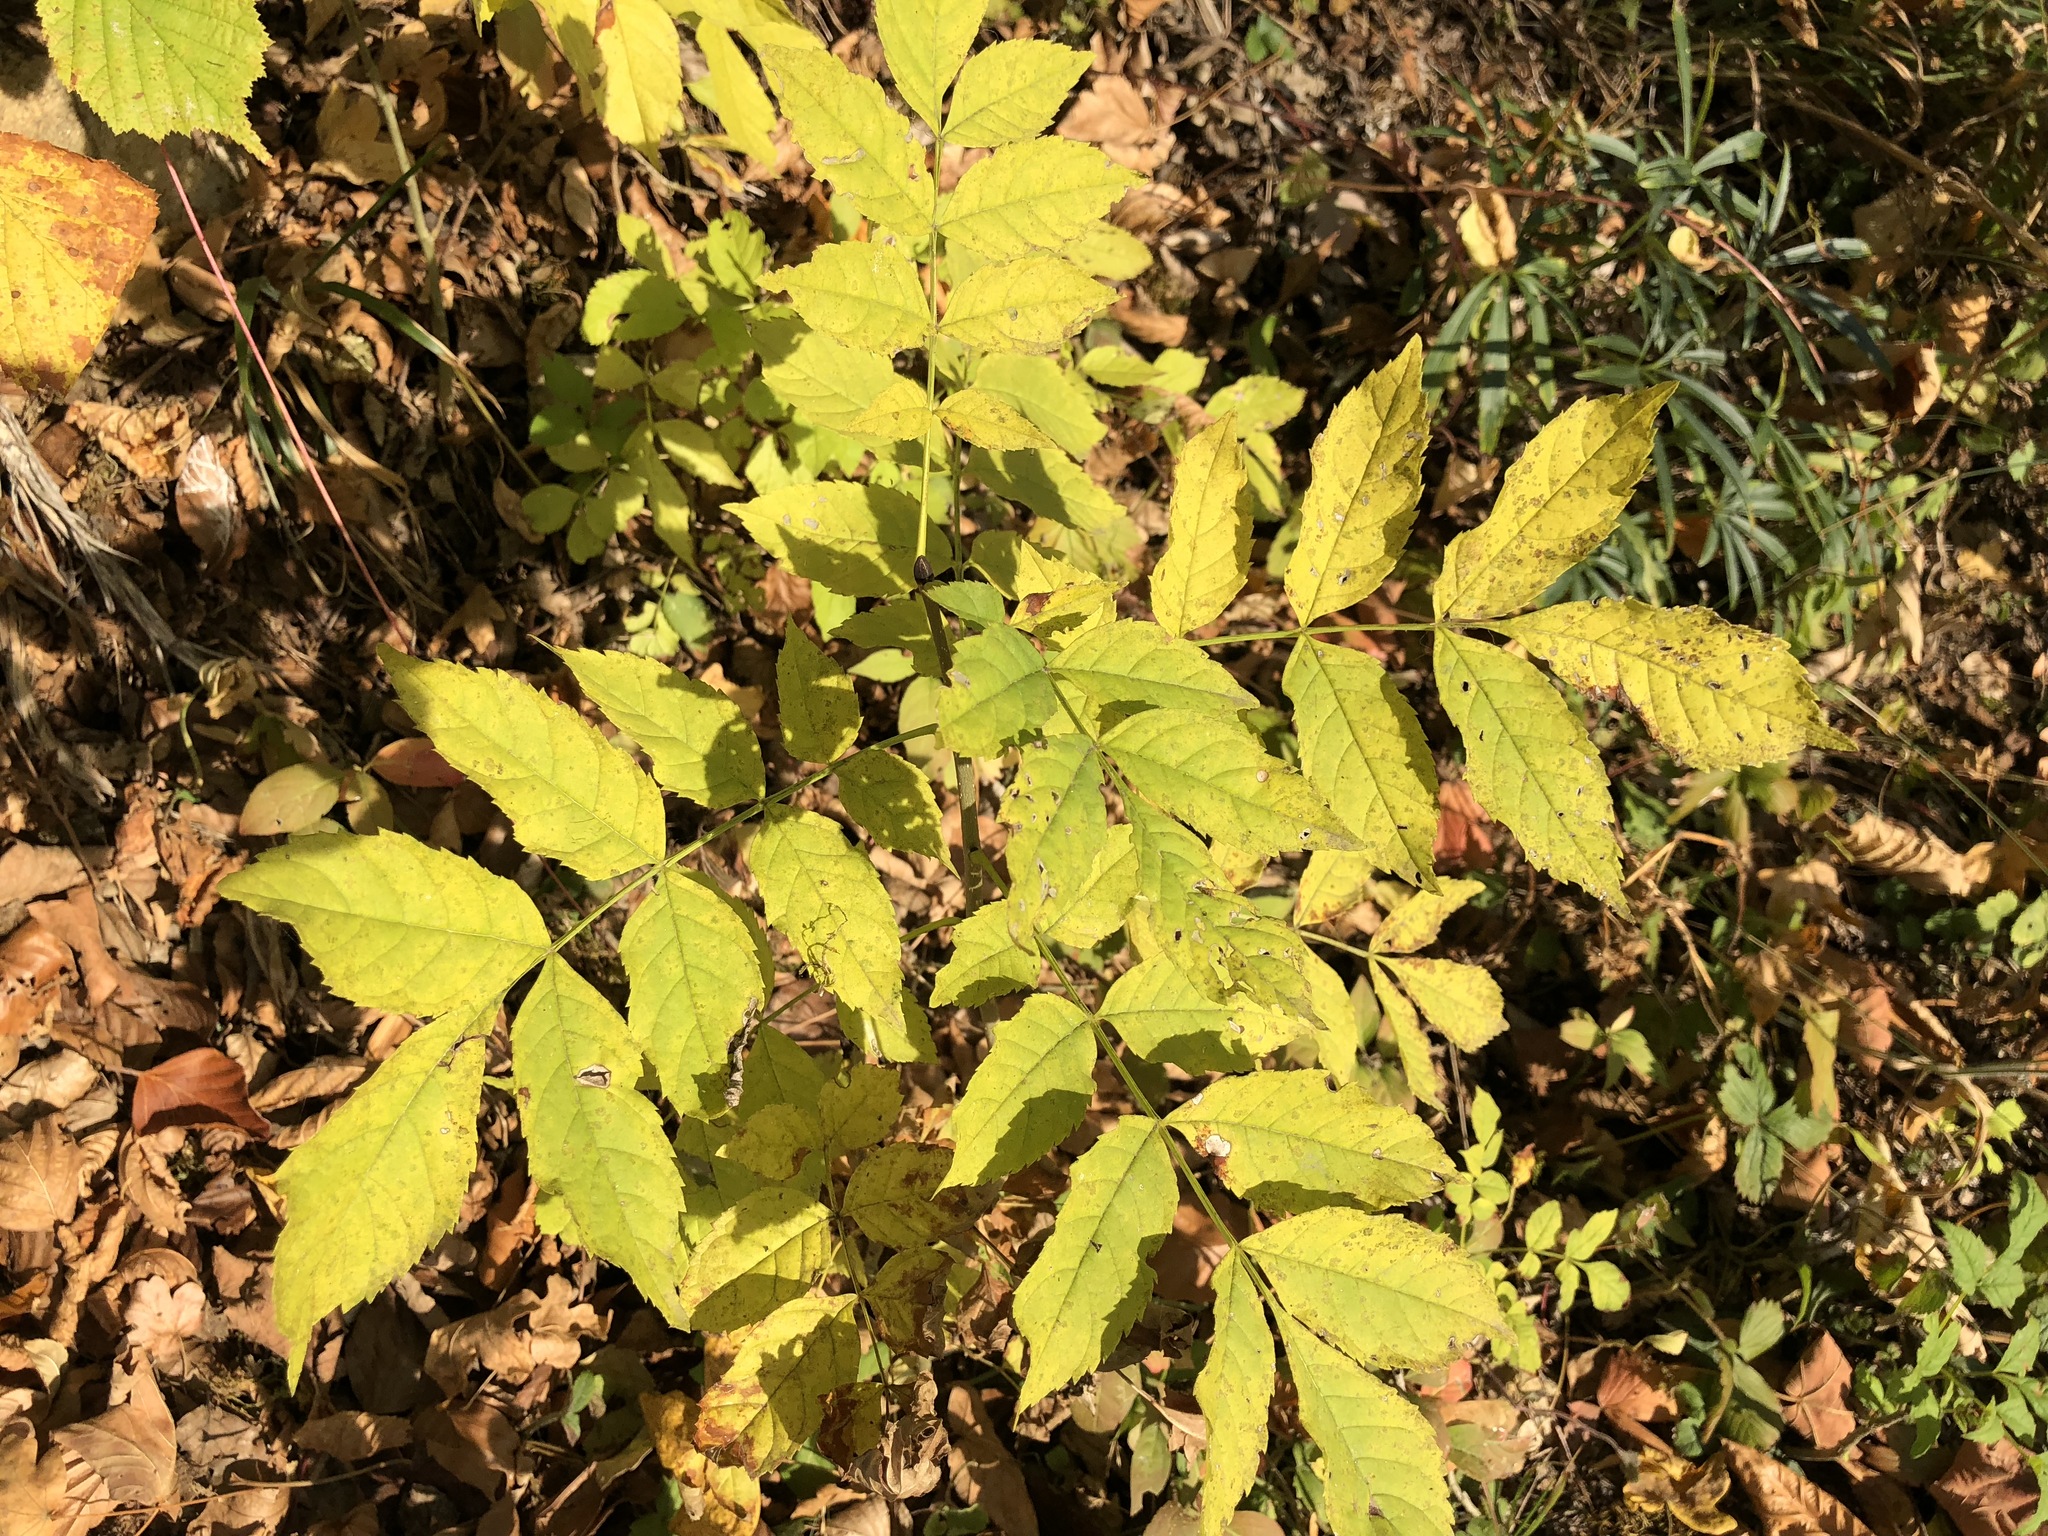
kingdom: Plantae
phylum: Tracheophyta
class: Magnoliopsida
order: Lamiales
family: Oleaceae
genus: Fraxinus
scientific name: Fraxinus excelsior
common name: European ash
